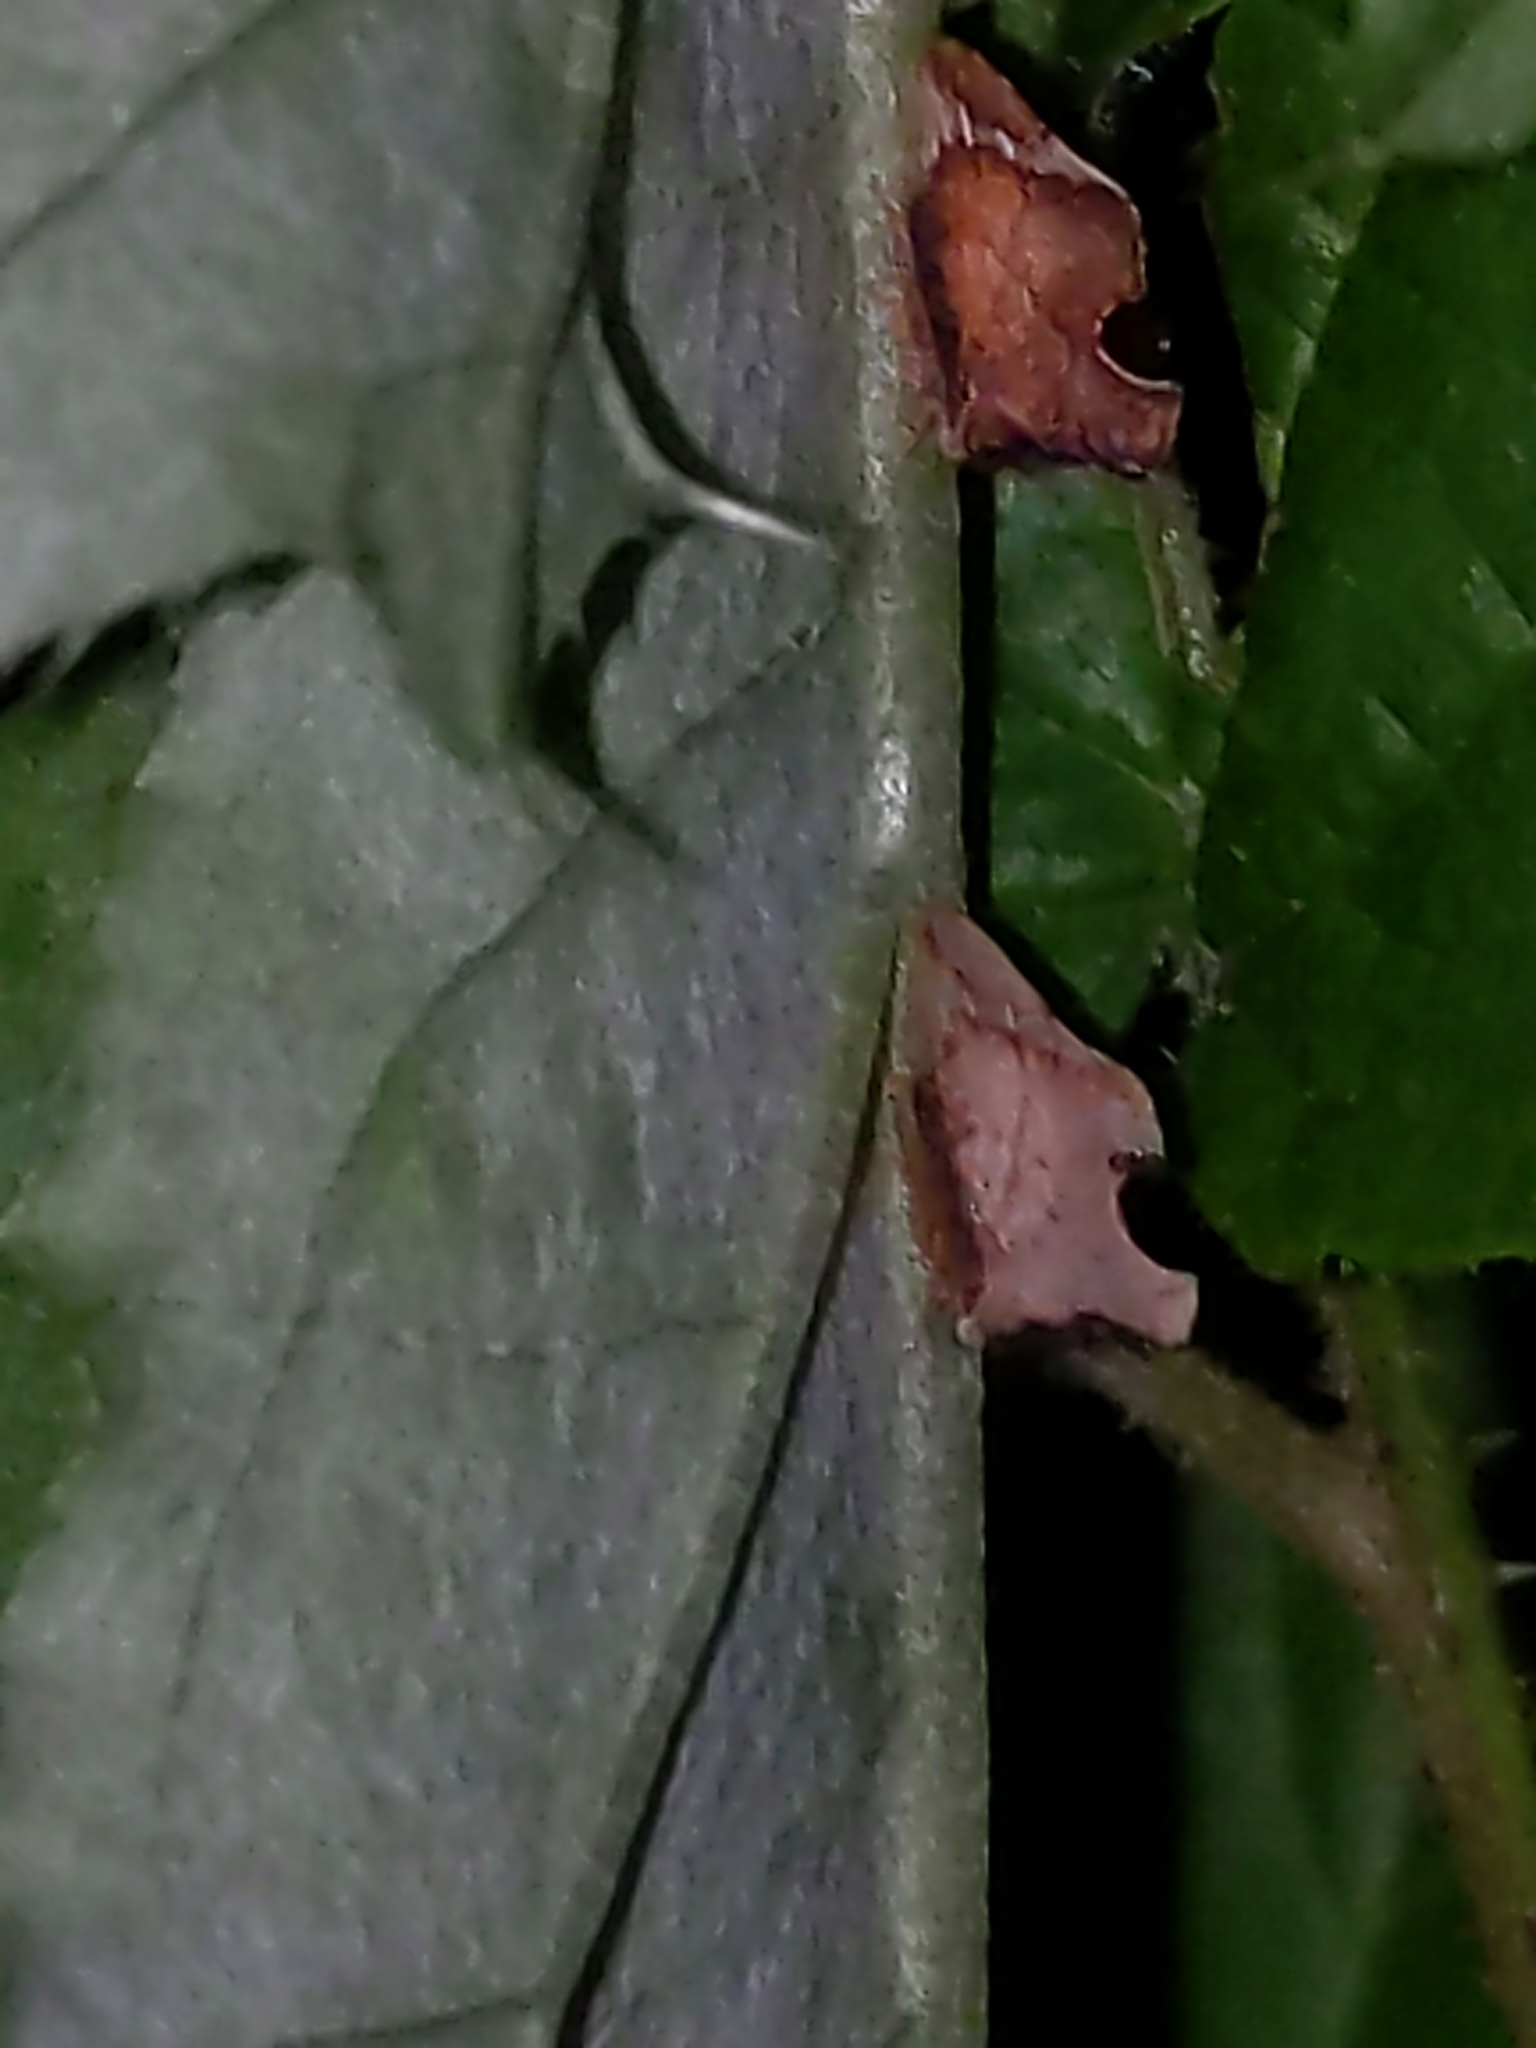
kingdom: Animalia
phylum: Arthropoda
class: Insecta
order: Hemiptera
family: Membracidae
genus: Entylia
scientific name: Entylia carinata
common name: Keeled treehopper
